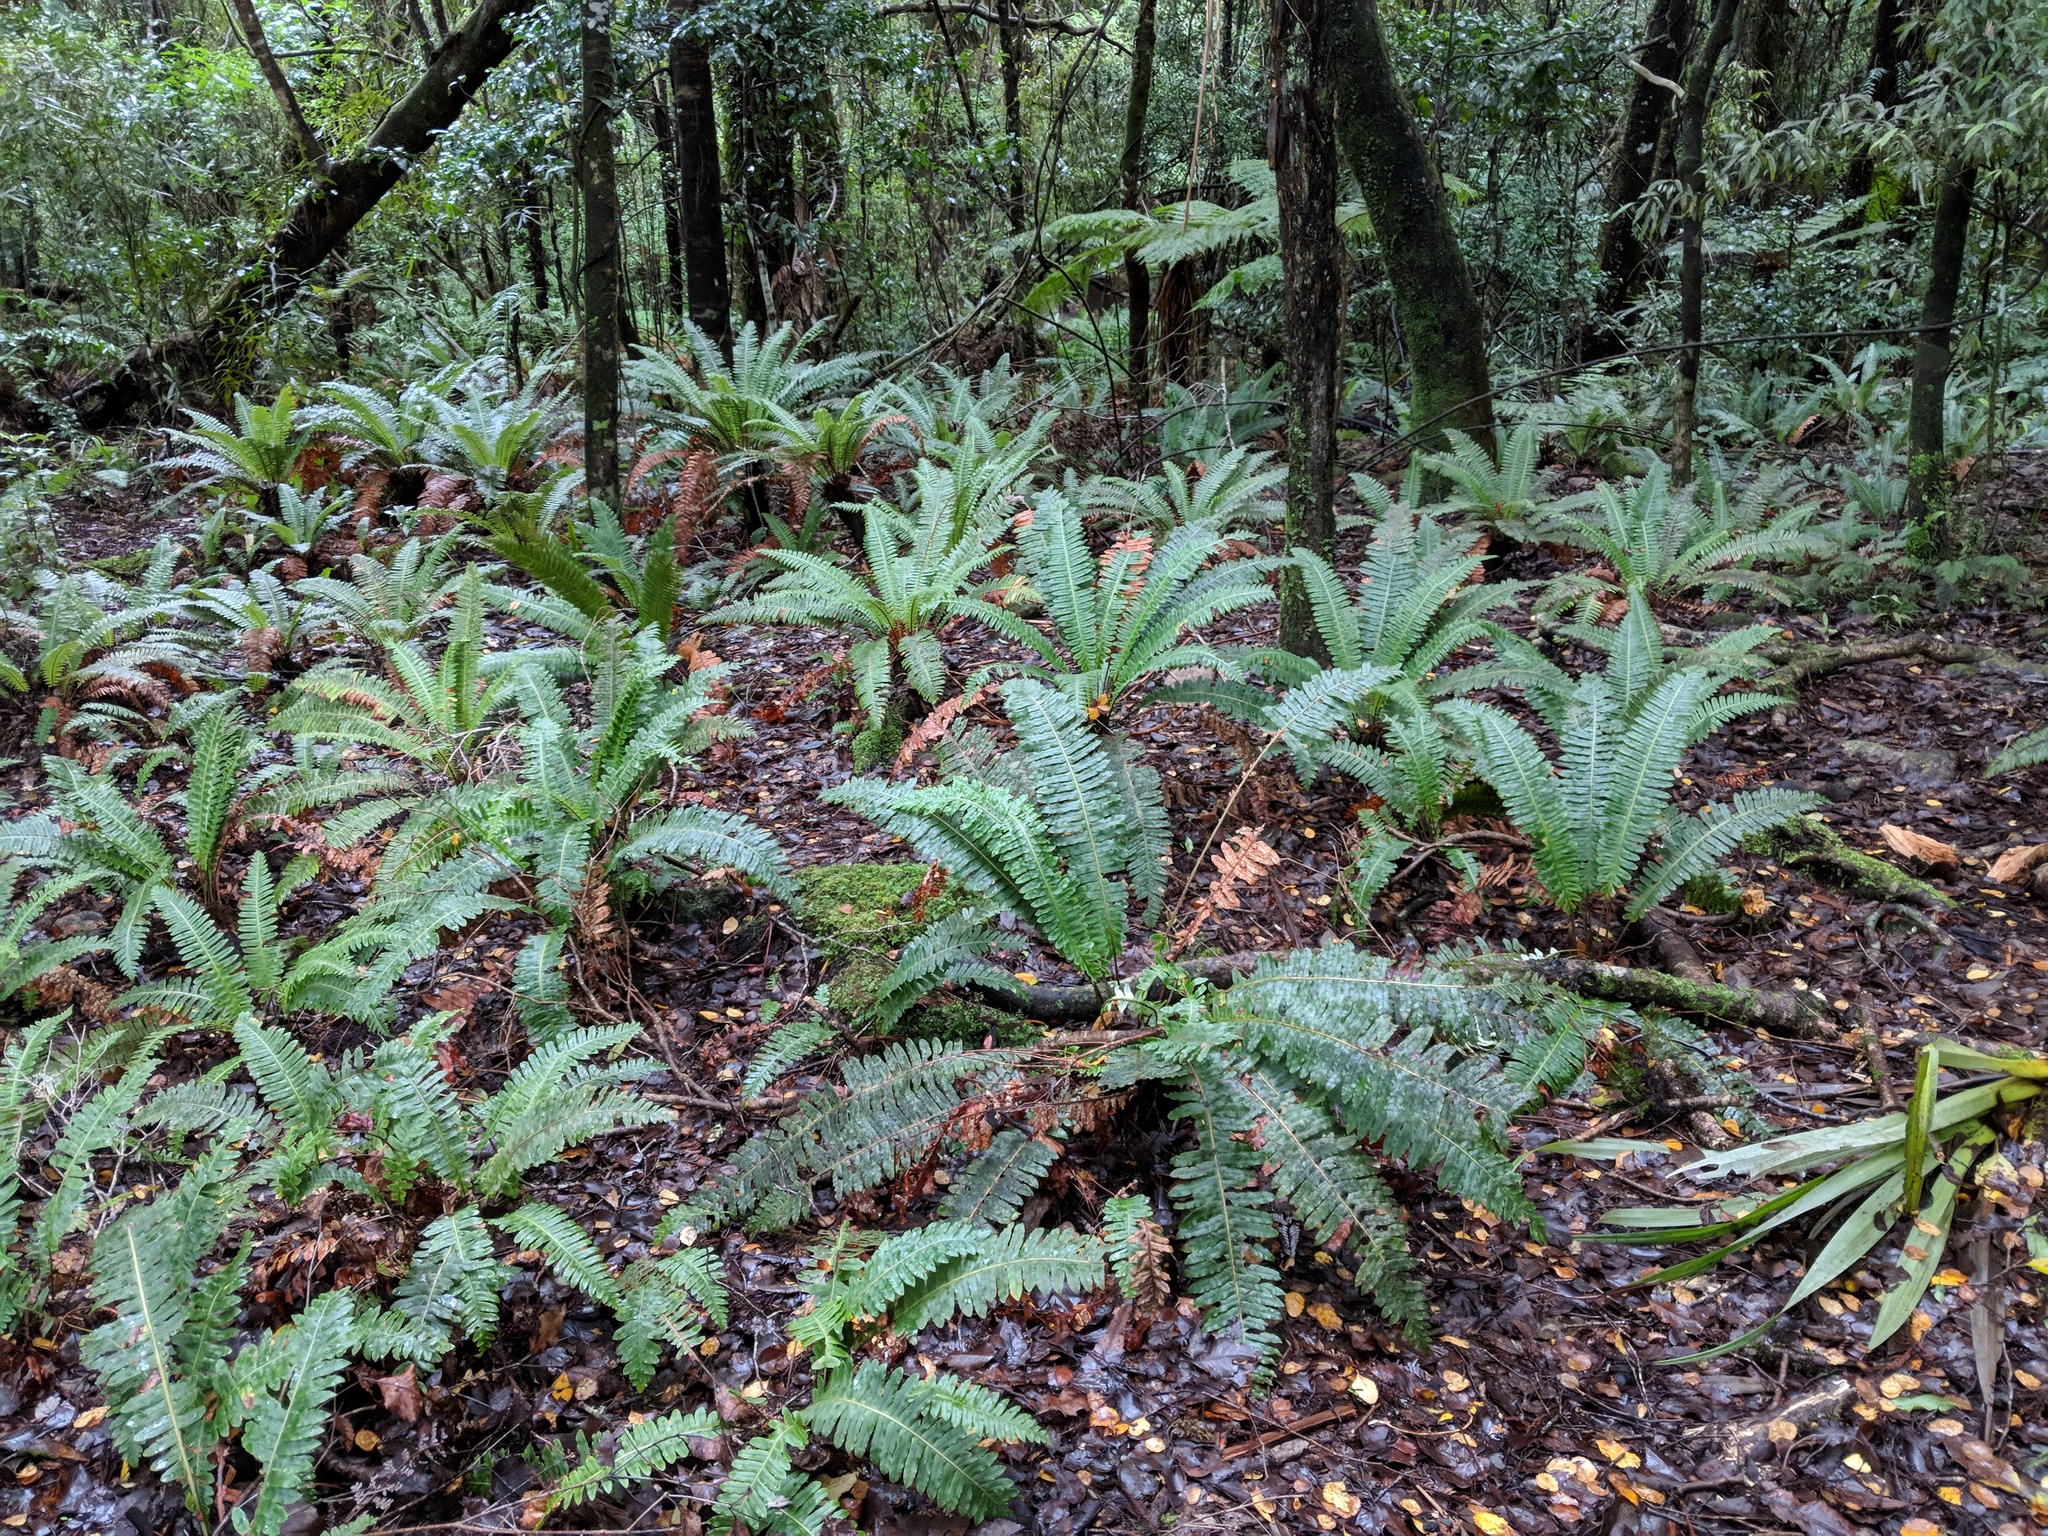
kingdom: Plantae
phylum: Tracheophyta
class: Polypodiopsida
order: Polypodiales
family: Blechnaceae
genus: Lomaria
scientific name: Lomaria discolor
